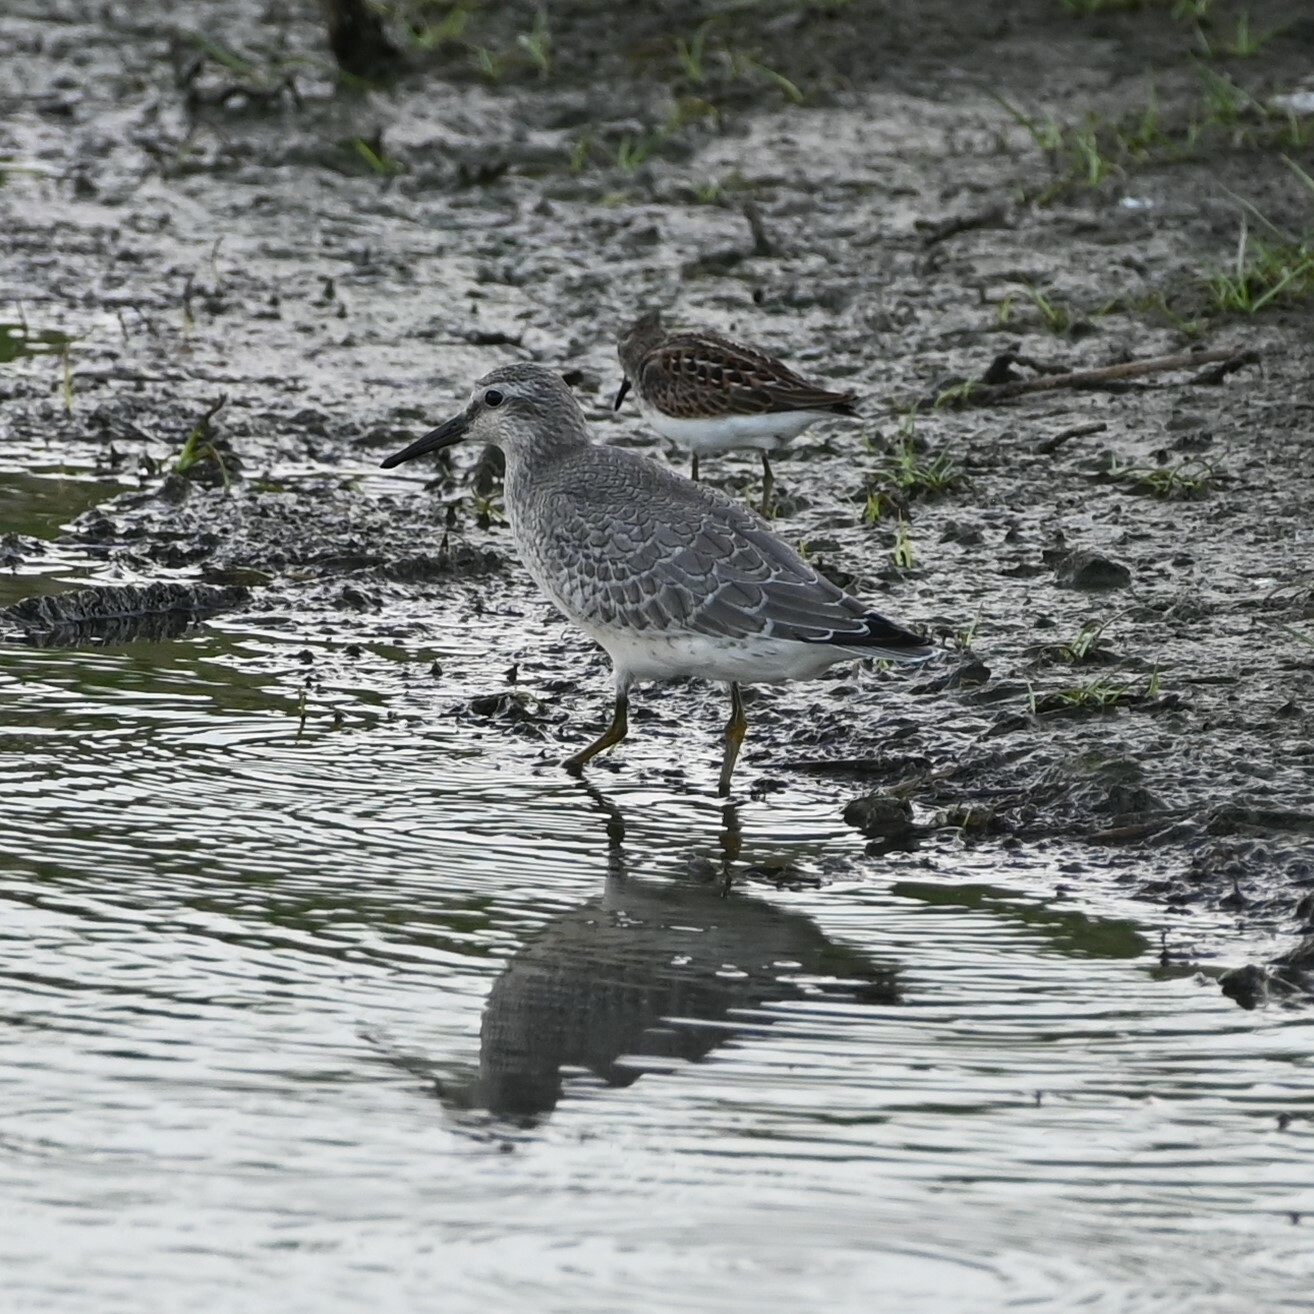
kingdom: Animalia
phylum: Chordata
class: Aves
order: Charadriiformes
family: Scolopacidae
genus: Calidris
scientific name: Calidris canutus
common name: Red knot
